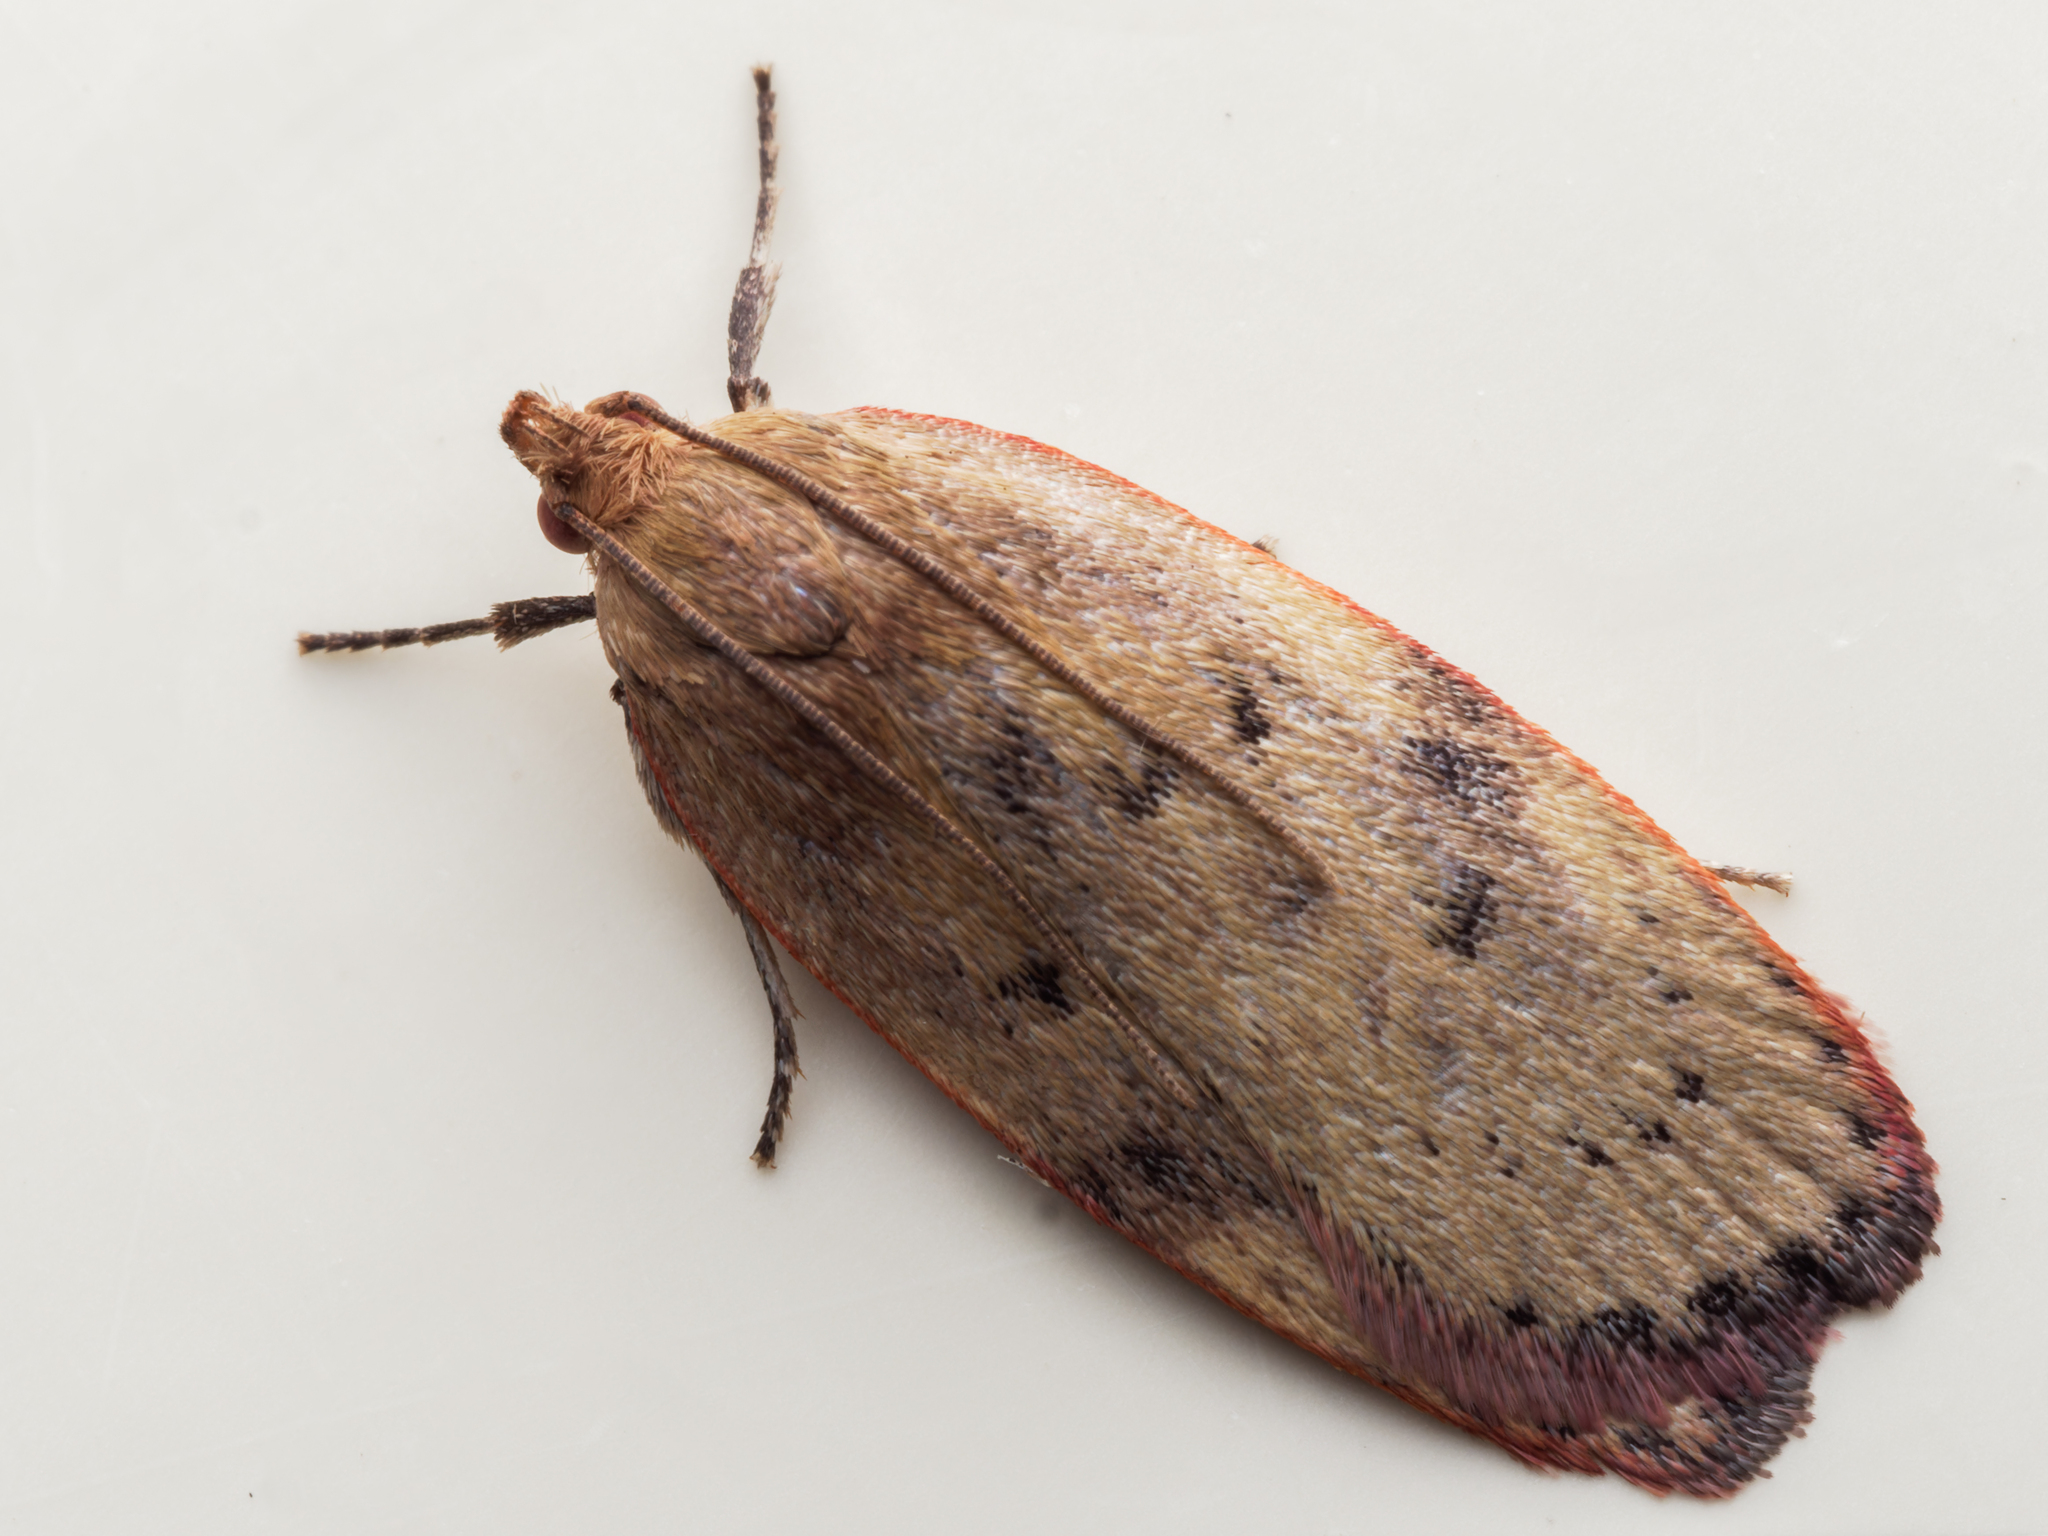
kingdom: Animalia
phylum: Arthropoda
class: Insecta
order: Lepidoptera
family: Depressariidae
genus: Phaeosaces
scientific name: Phaeosaces coarctatella
